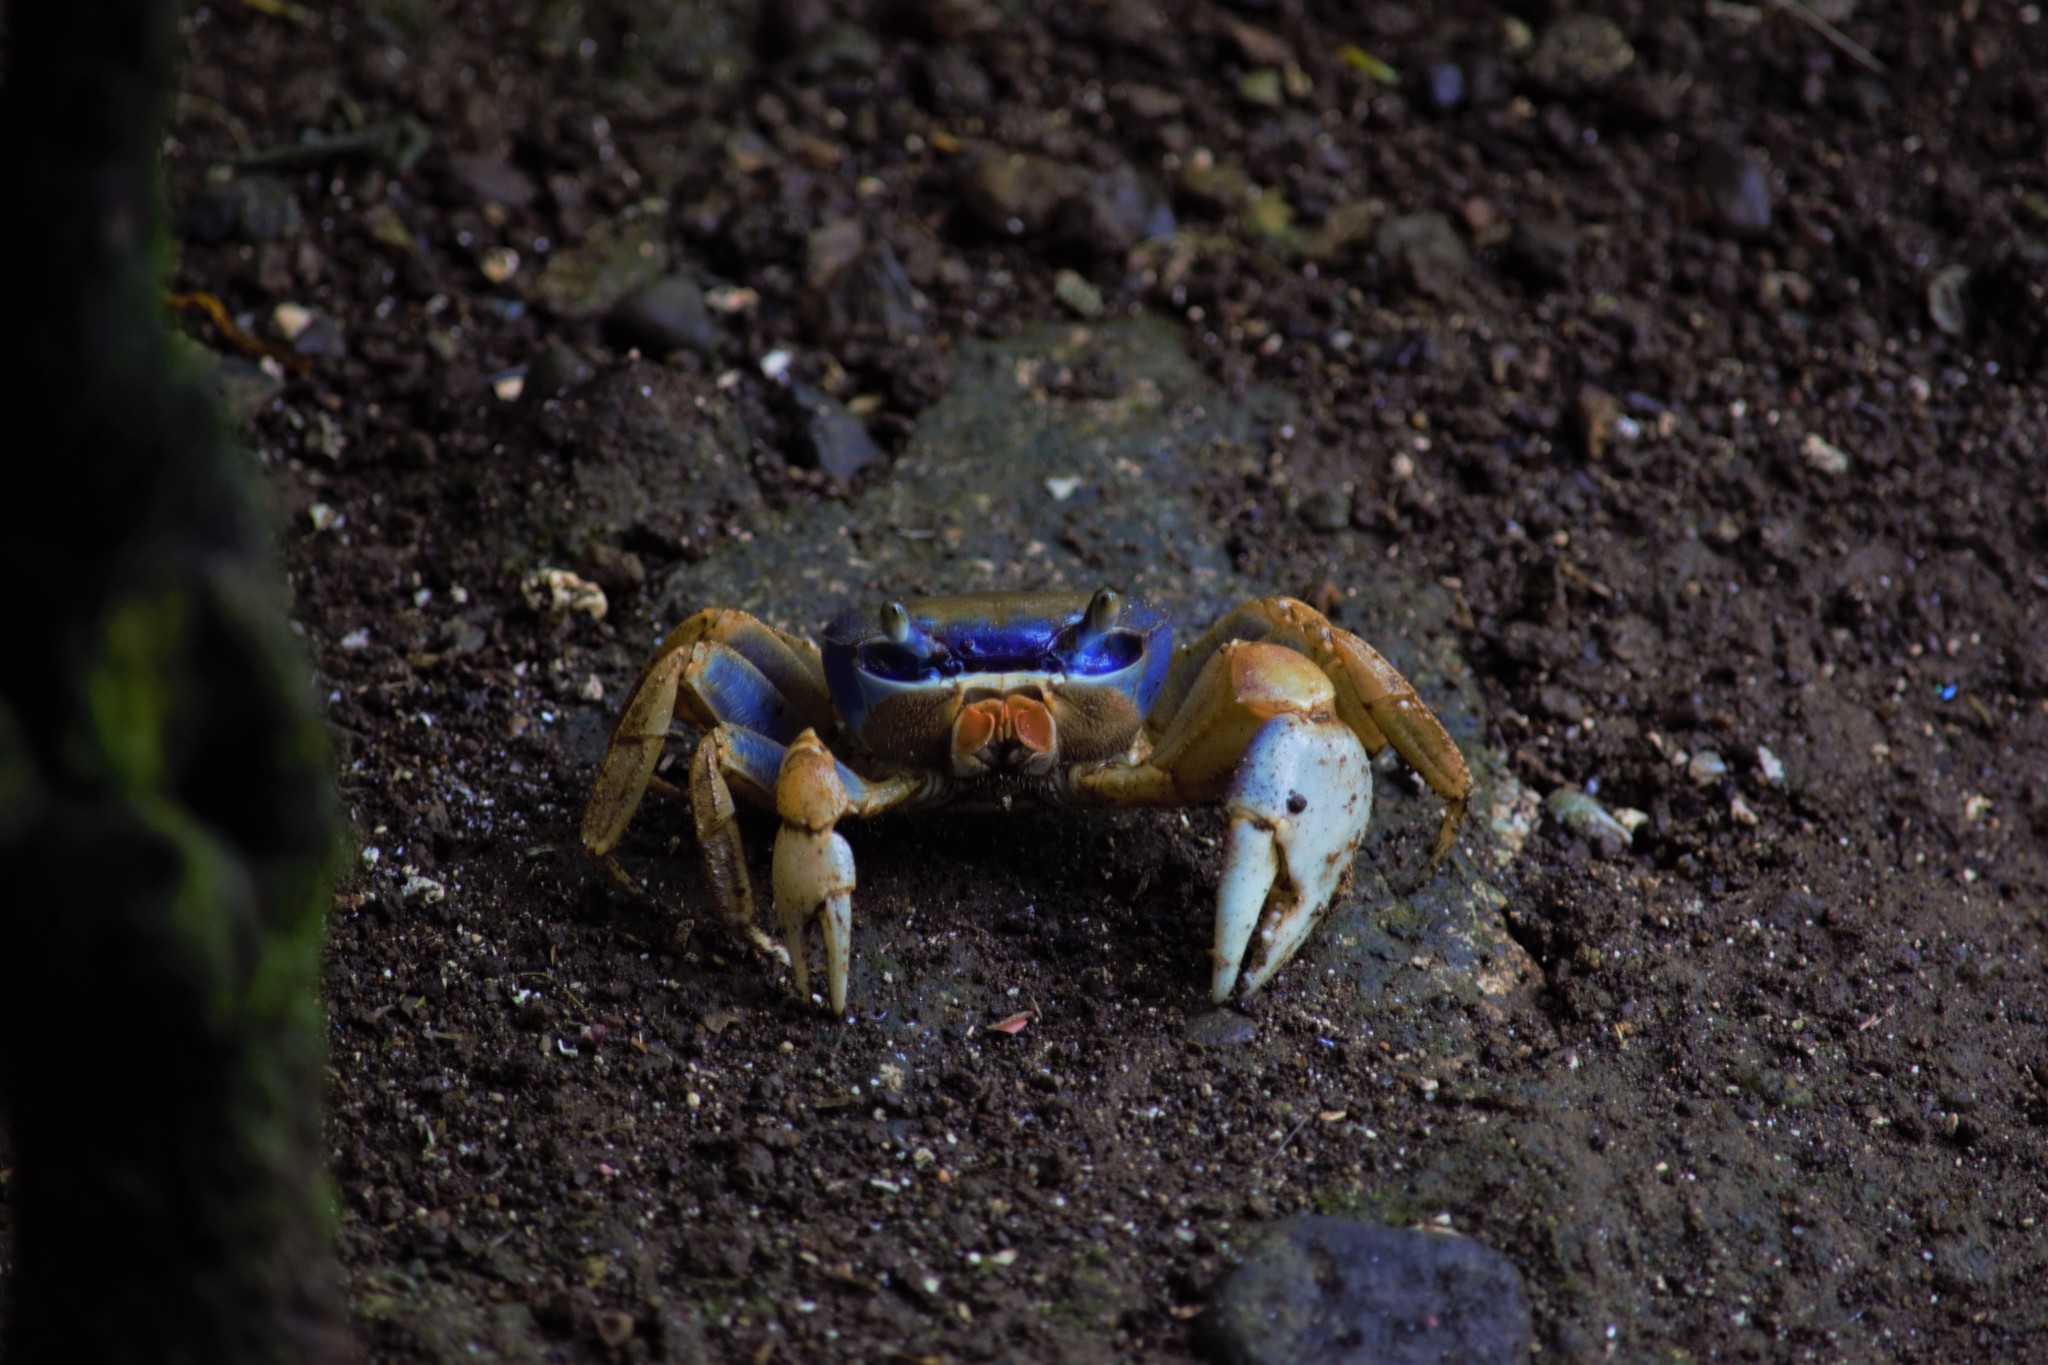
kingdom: Animalia
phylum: Arthropoda
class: Malacostraca
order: Decapoda
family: Gecarcinidae
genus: Cardisoma
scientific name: Cardisoma guanhumi
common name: Great land crab
